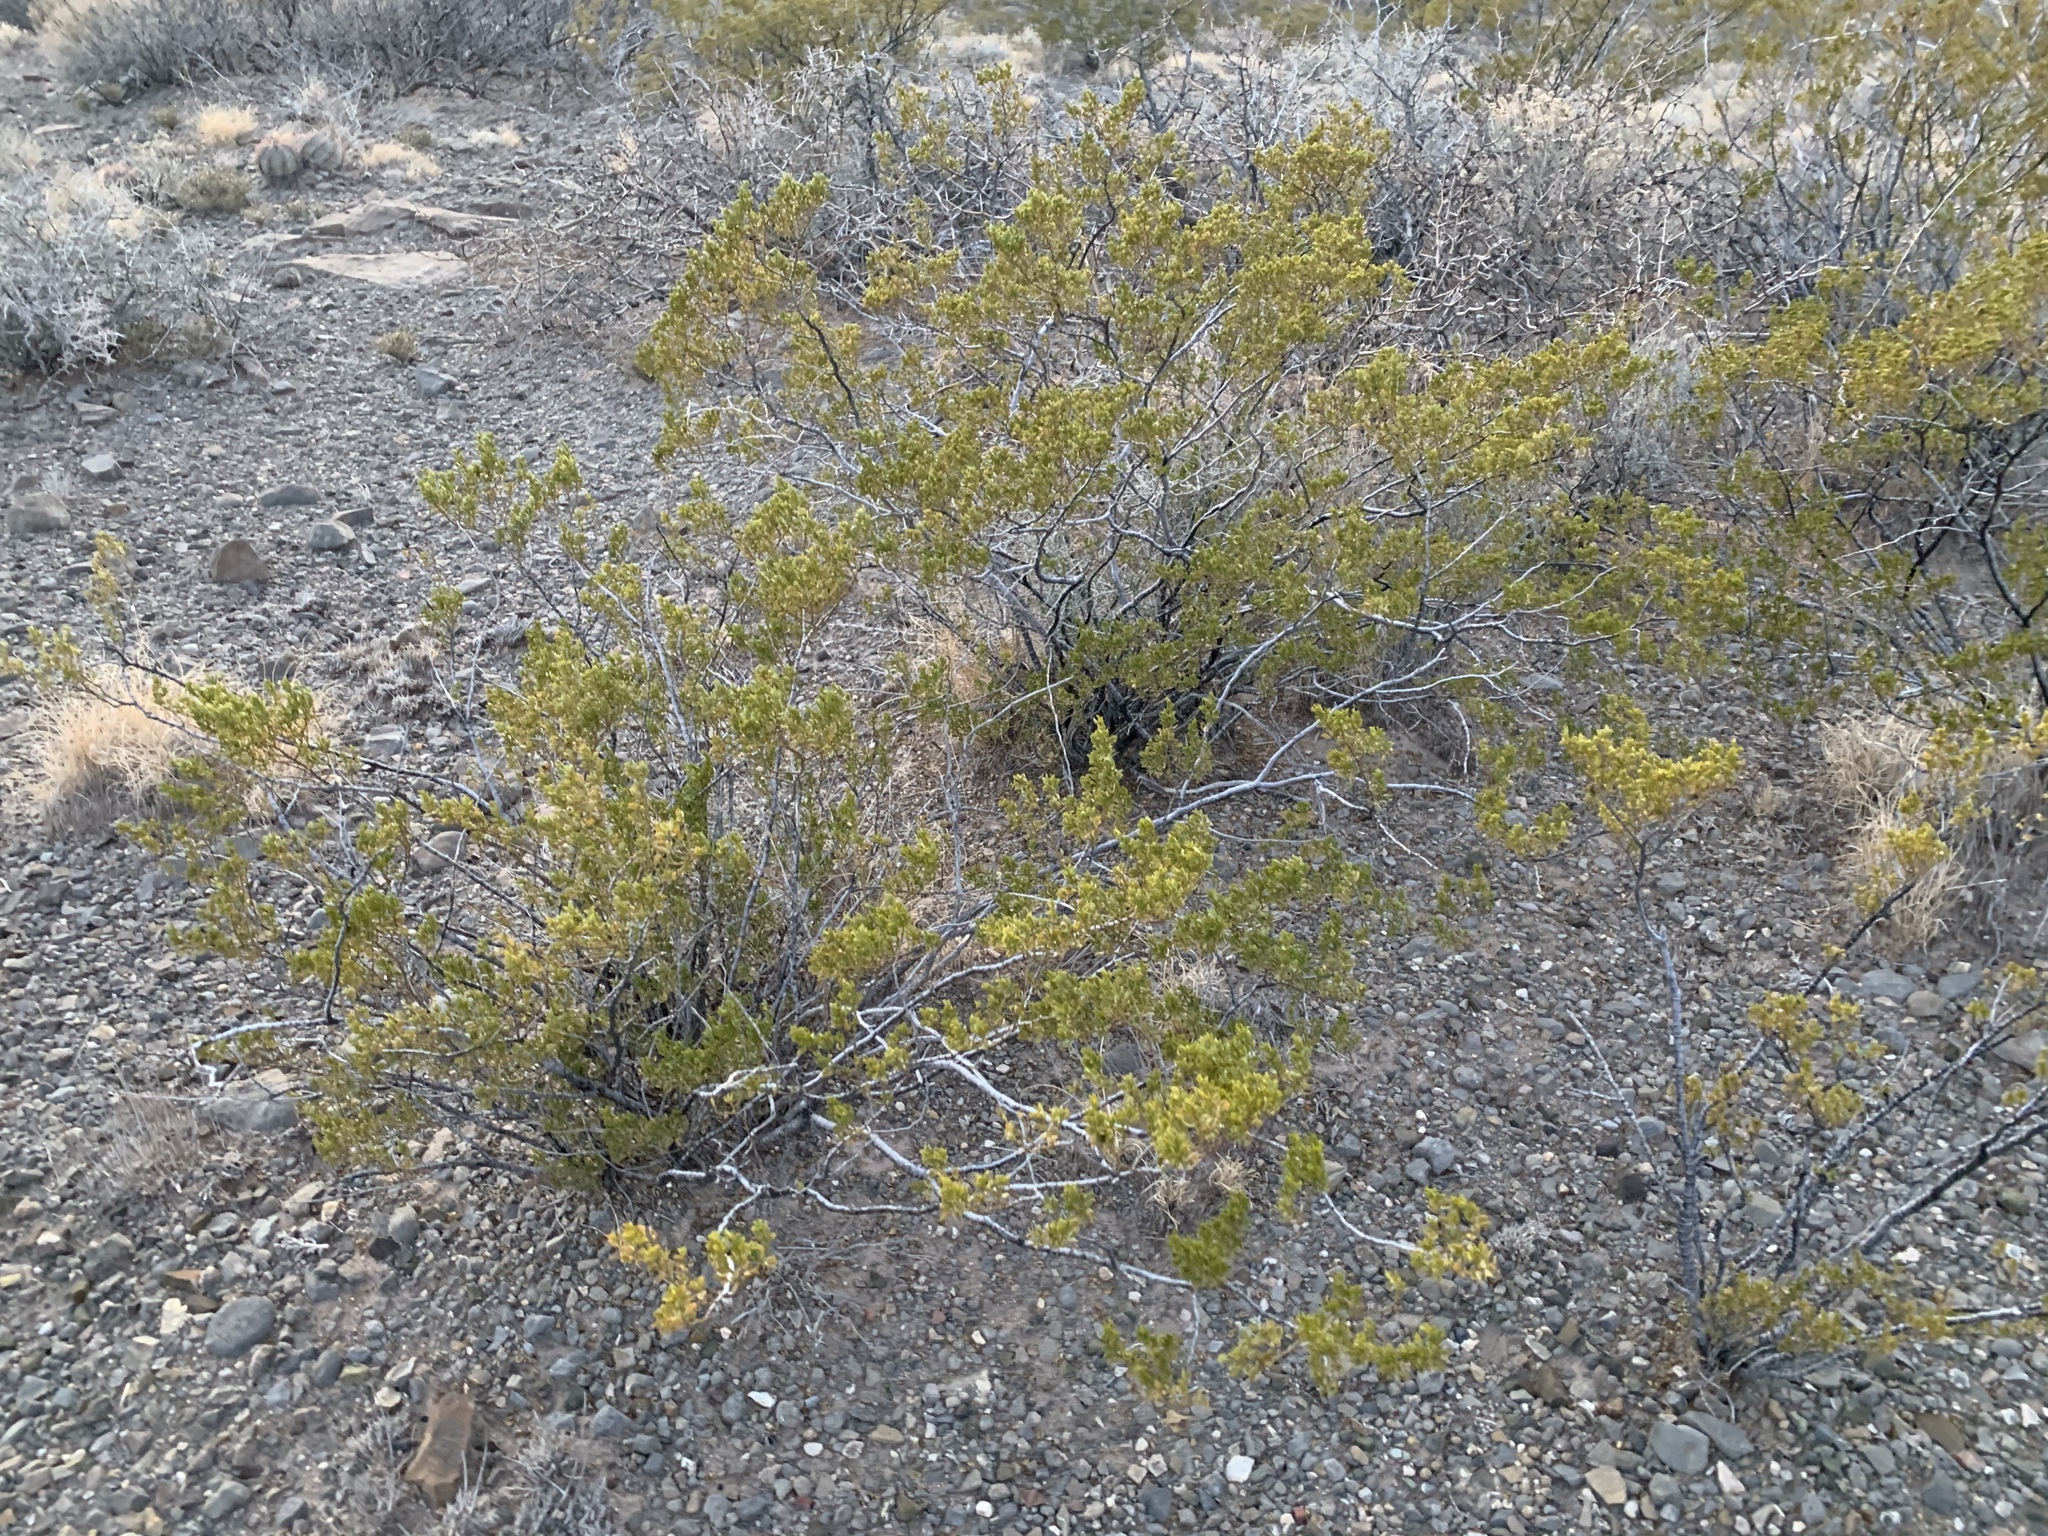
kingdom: Plantae
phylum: Tracheophyta
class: Magnoliopsida
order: Zygophyllales
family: Zygophyllaceae
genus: Larrea
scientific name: Larrea tridentata
